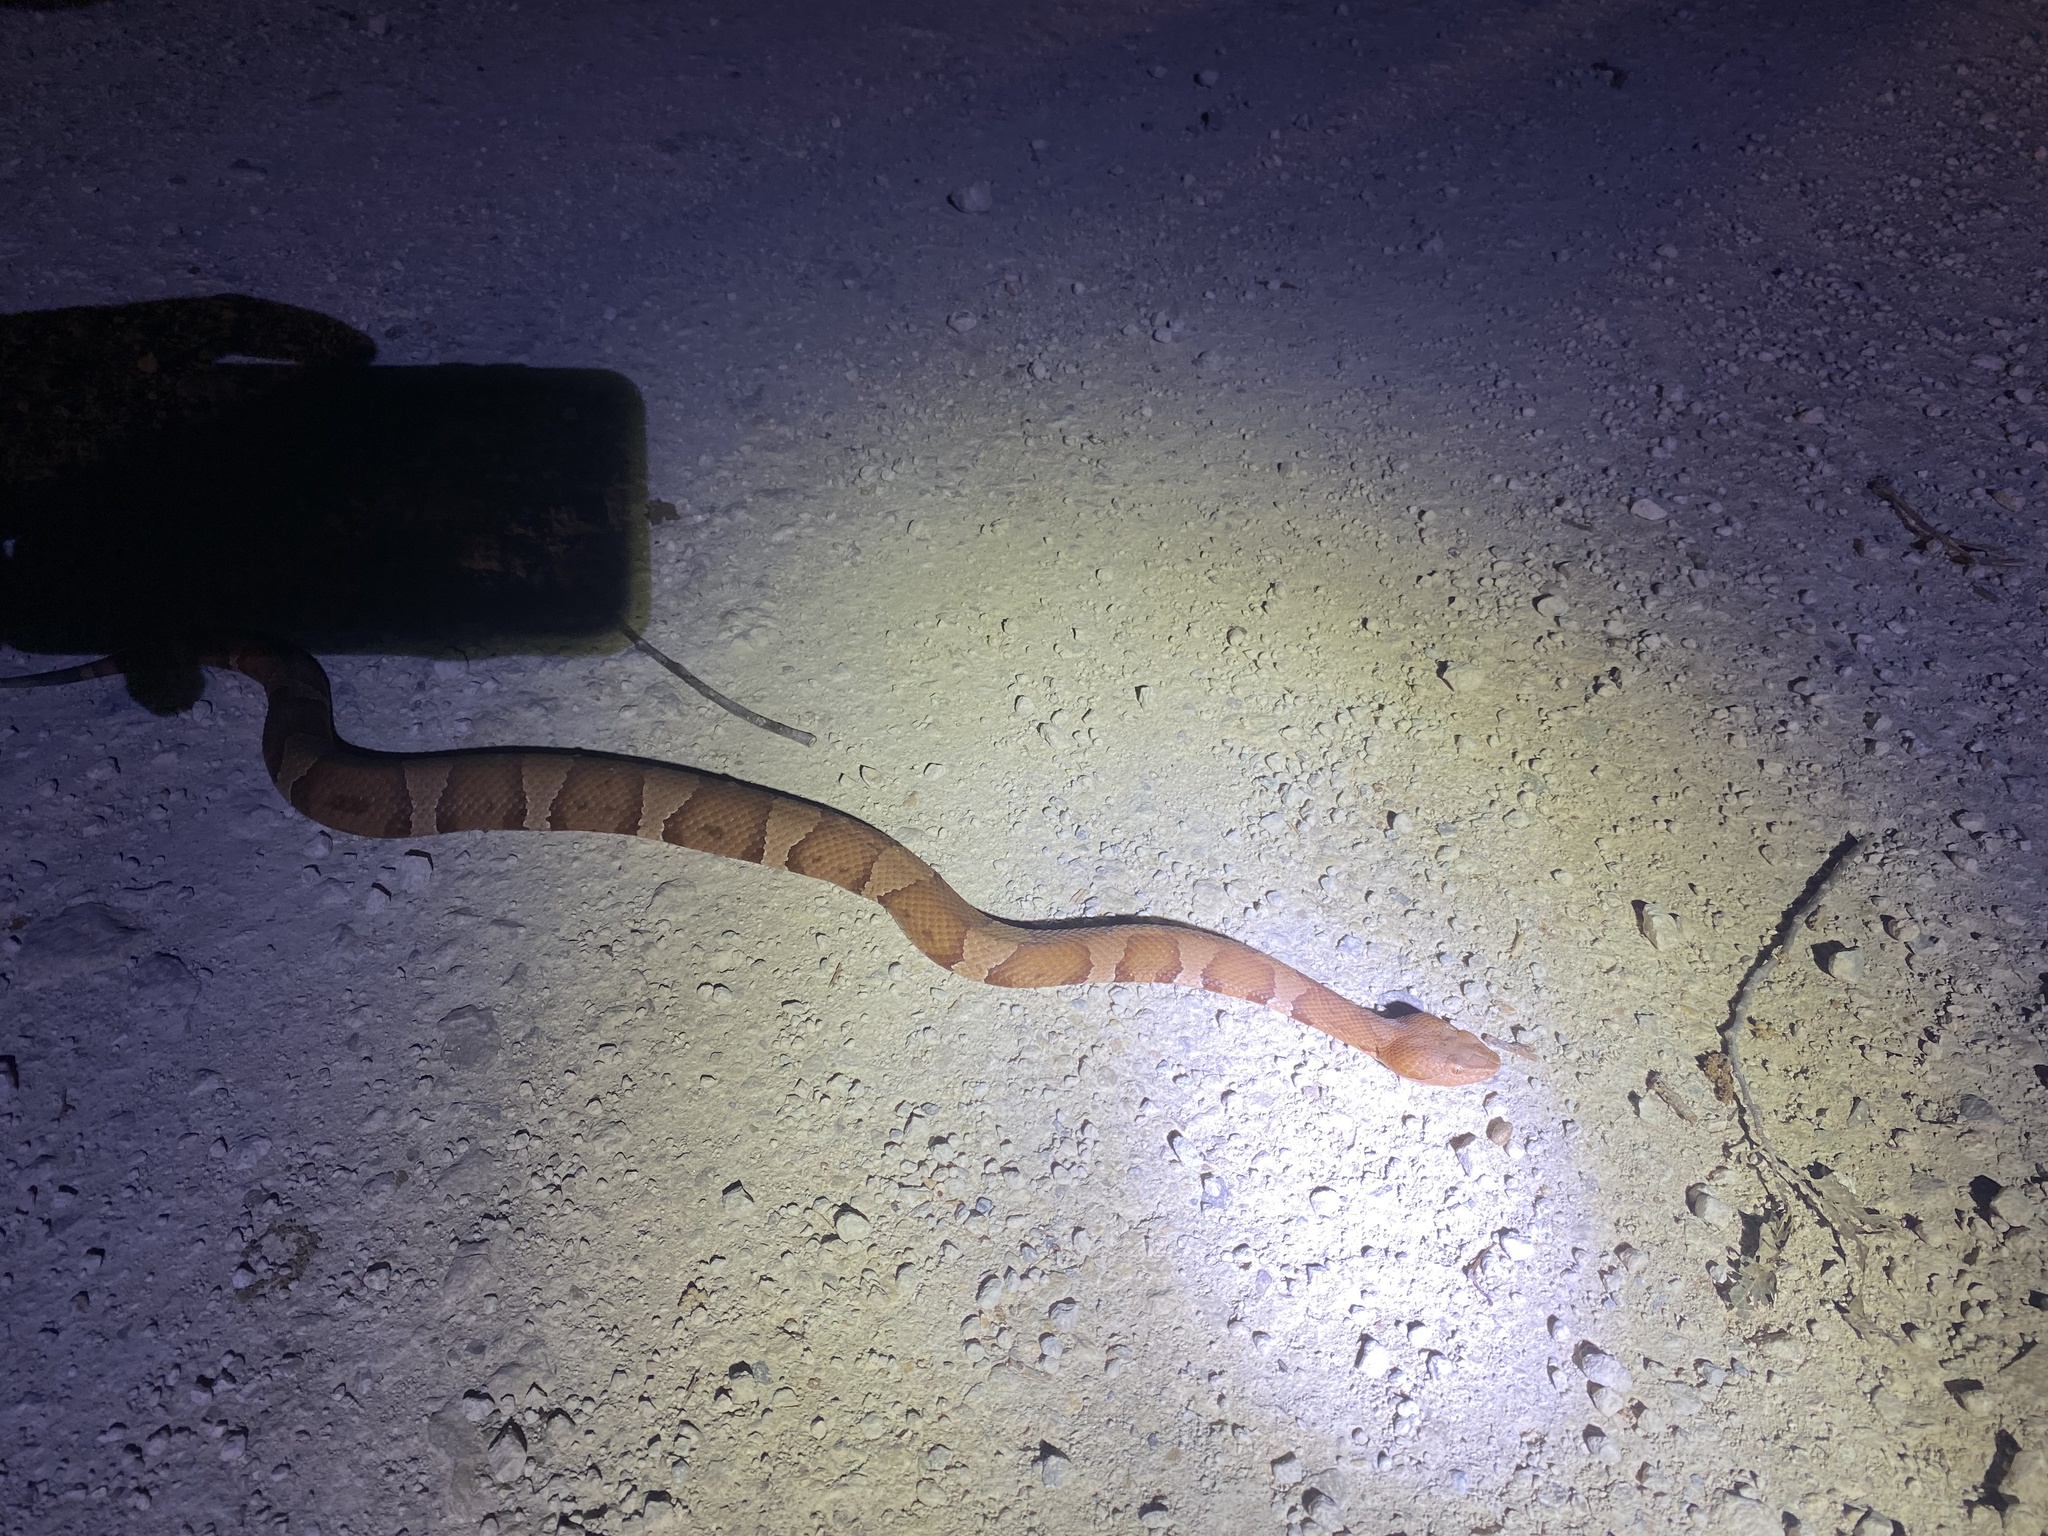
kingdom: Animalia
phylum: Chordata
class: Squamata
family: Viperidae
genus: Agkistrodon
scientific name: Agkistrodon laticinctus
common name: Broad-banded copperhead
